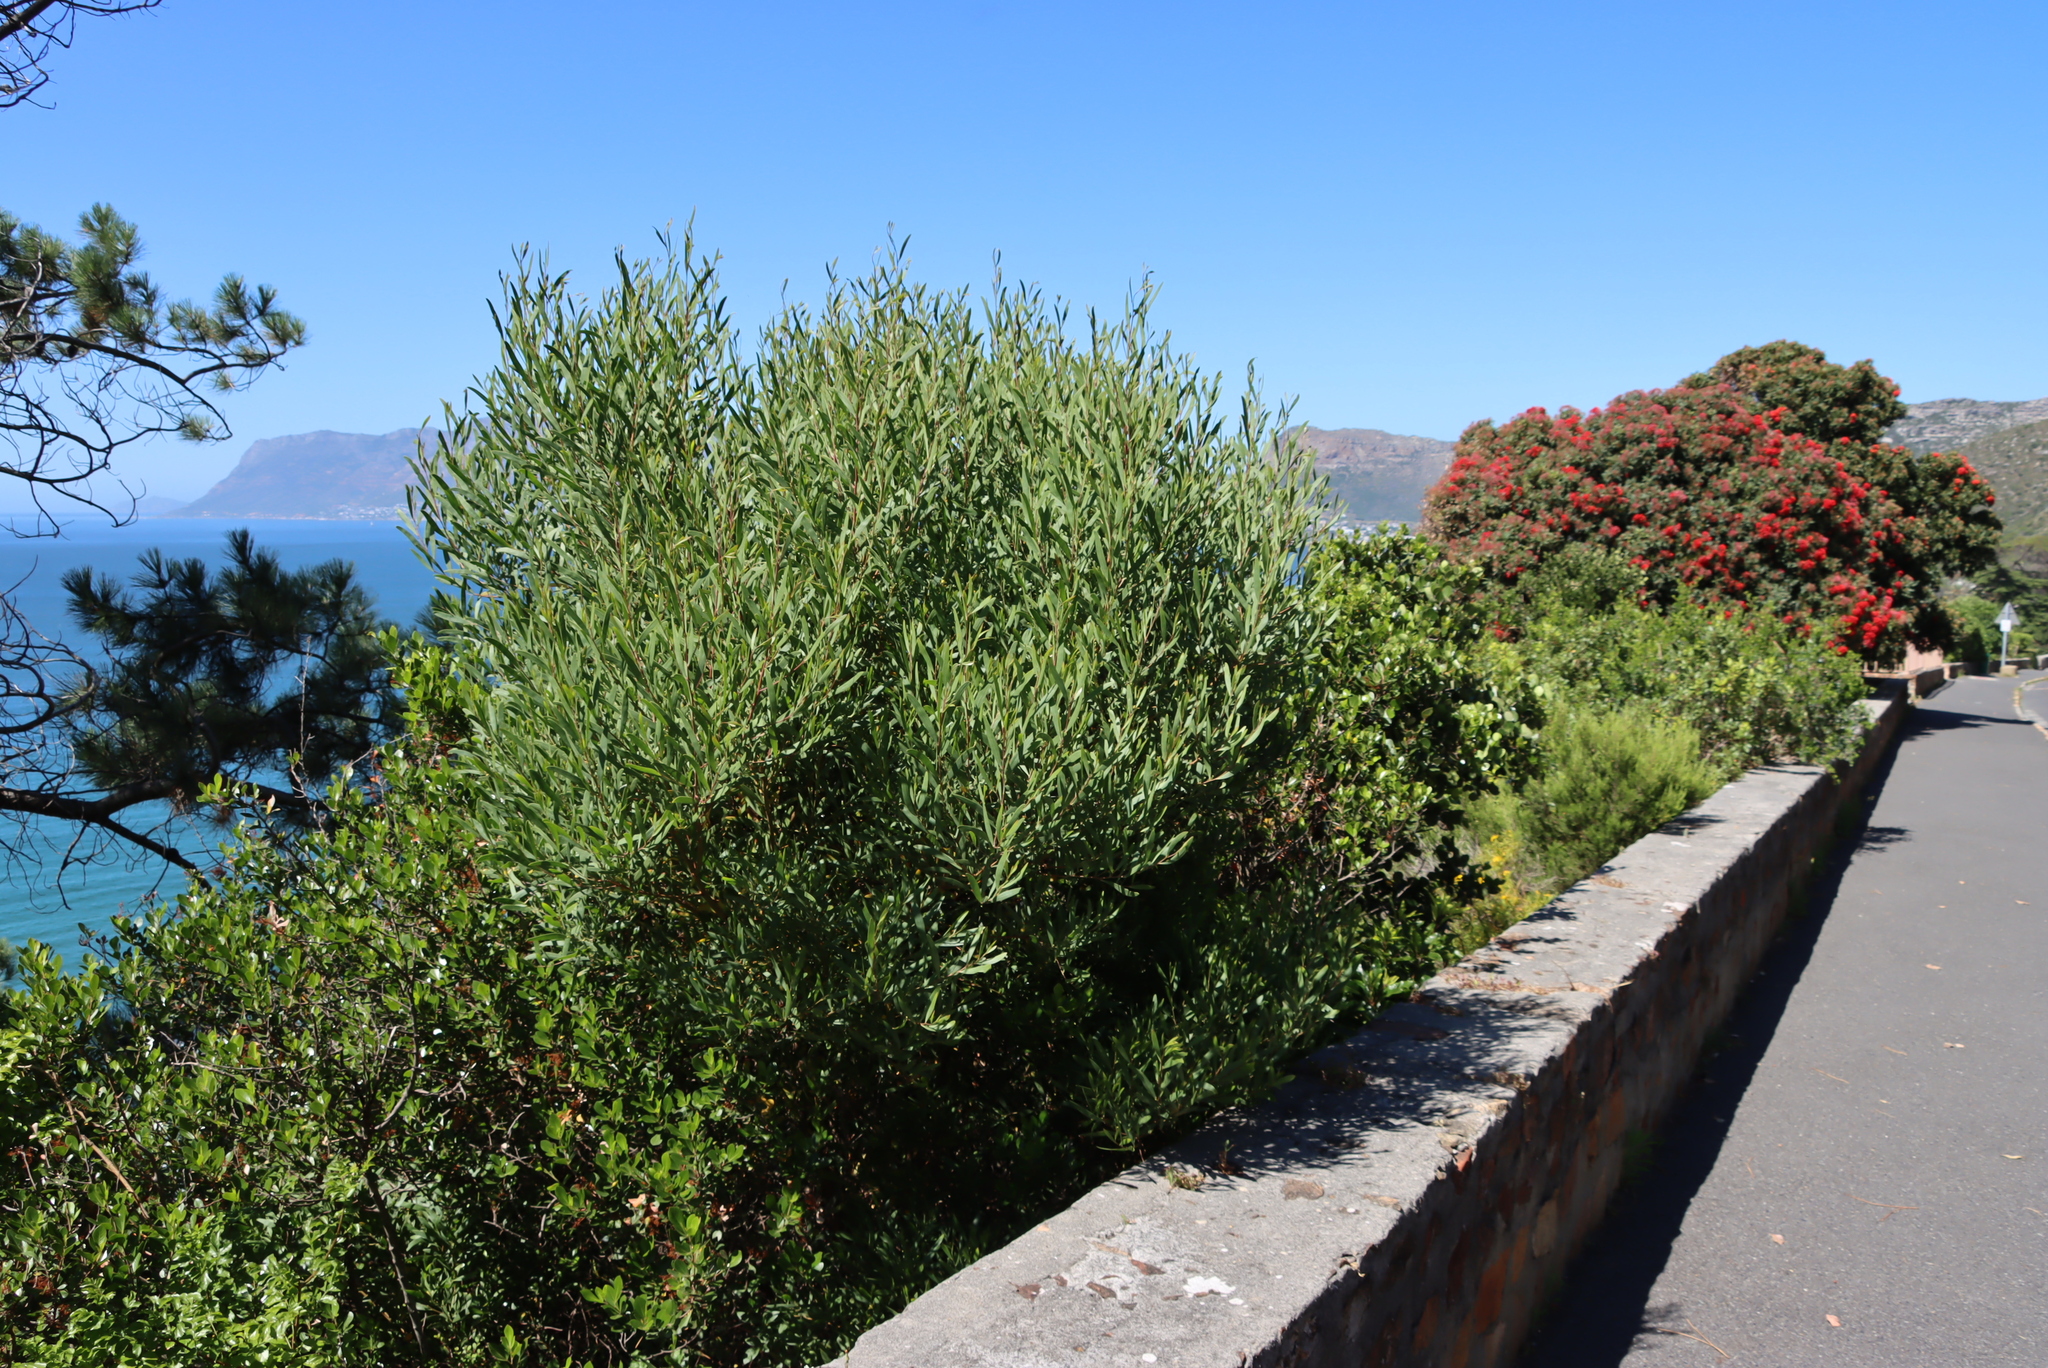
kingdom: Plantae
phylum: Tracheophyta
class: Magnoliopsida
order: Fabales
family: Fabaceae
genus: Acacia
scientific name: Acacia cyclops
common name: Coastal wattle
